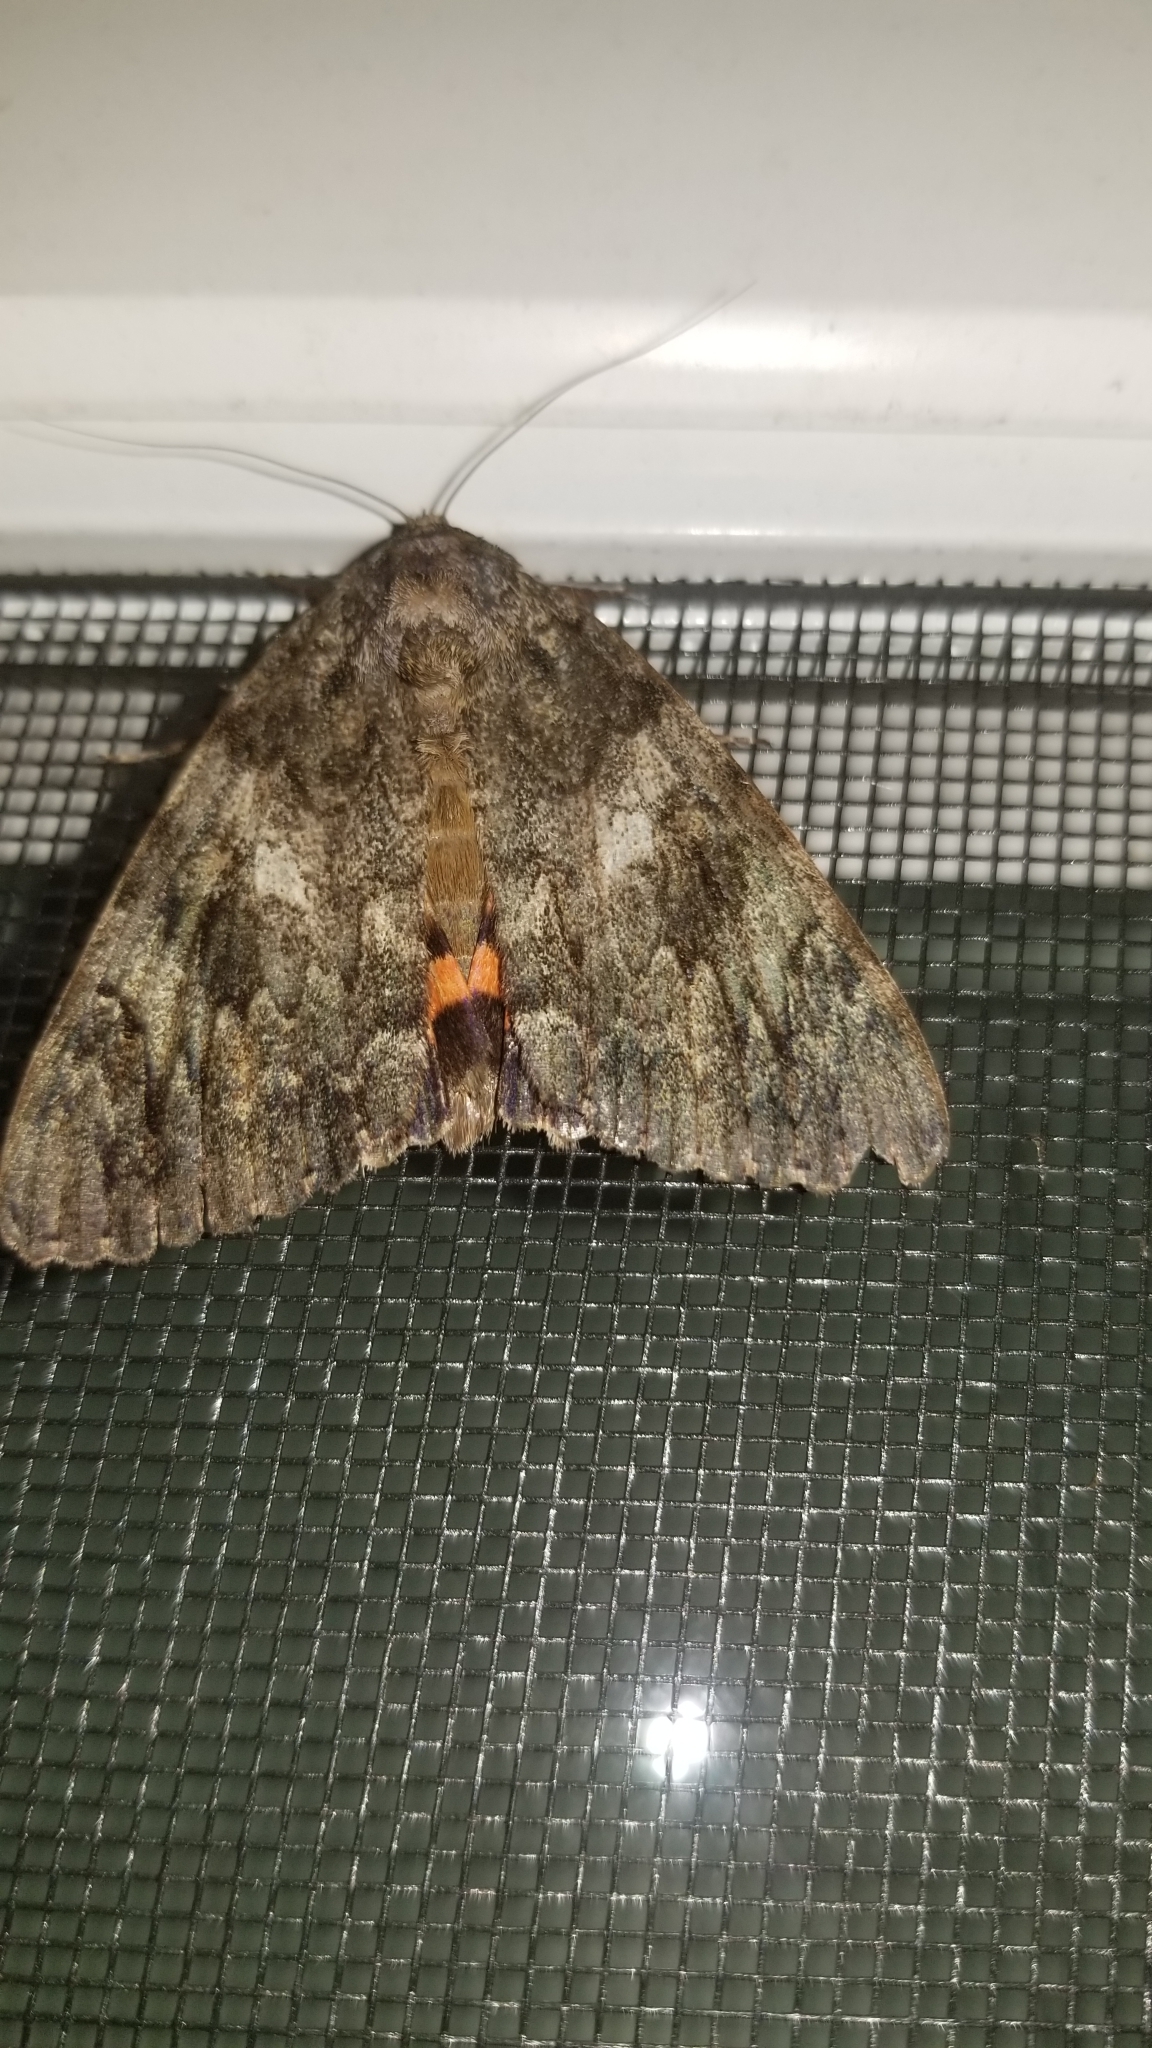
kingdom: Animalia
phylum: Arthropoda
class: Insecta
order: Lepidoptera
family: Erebidae
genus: Catocala
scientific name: Catocala ilia
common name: Ilia underwing
